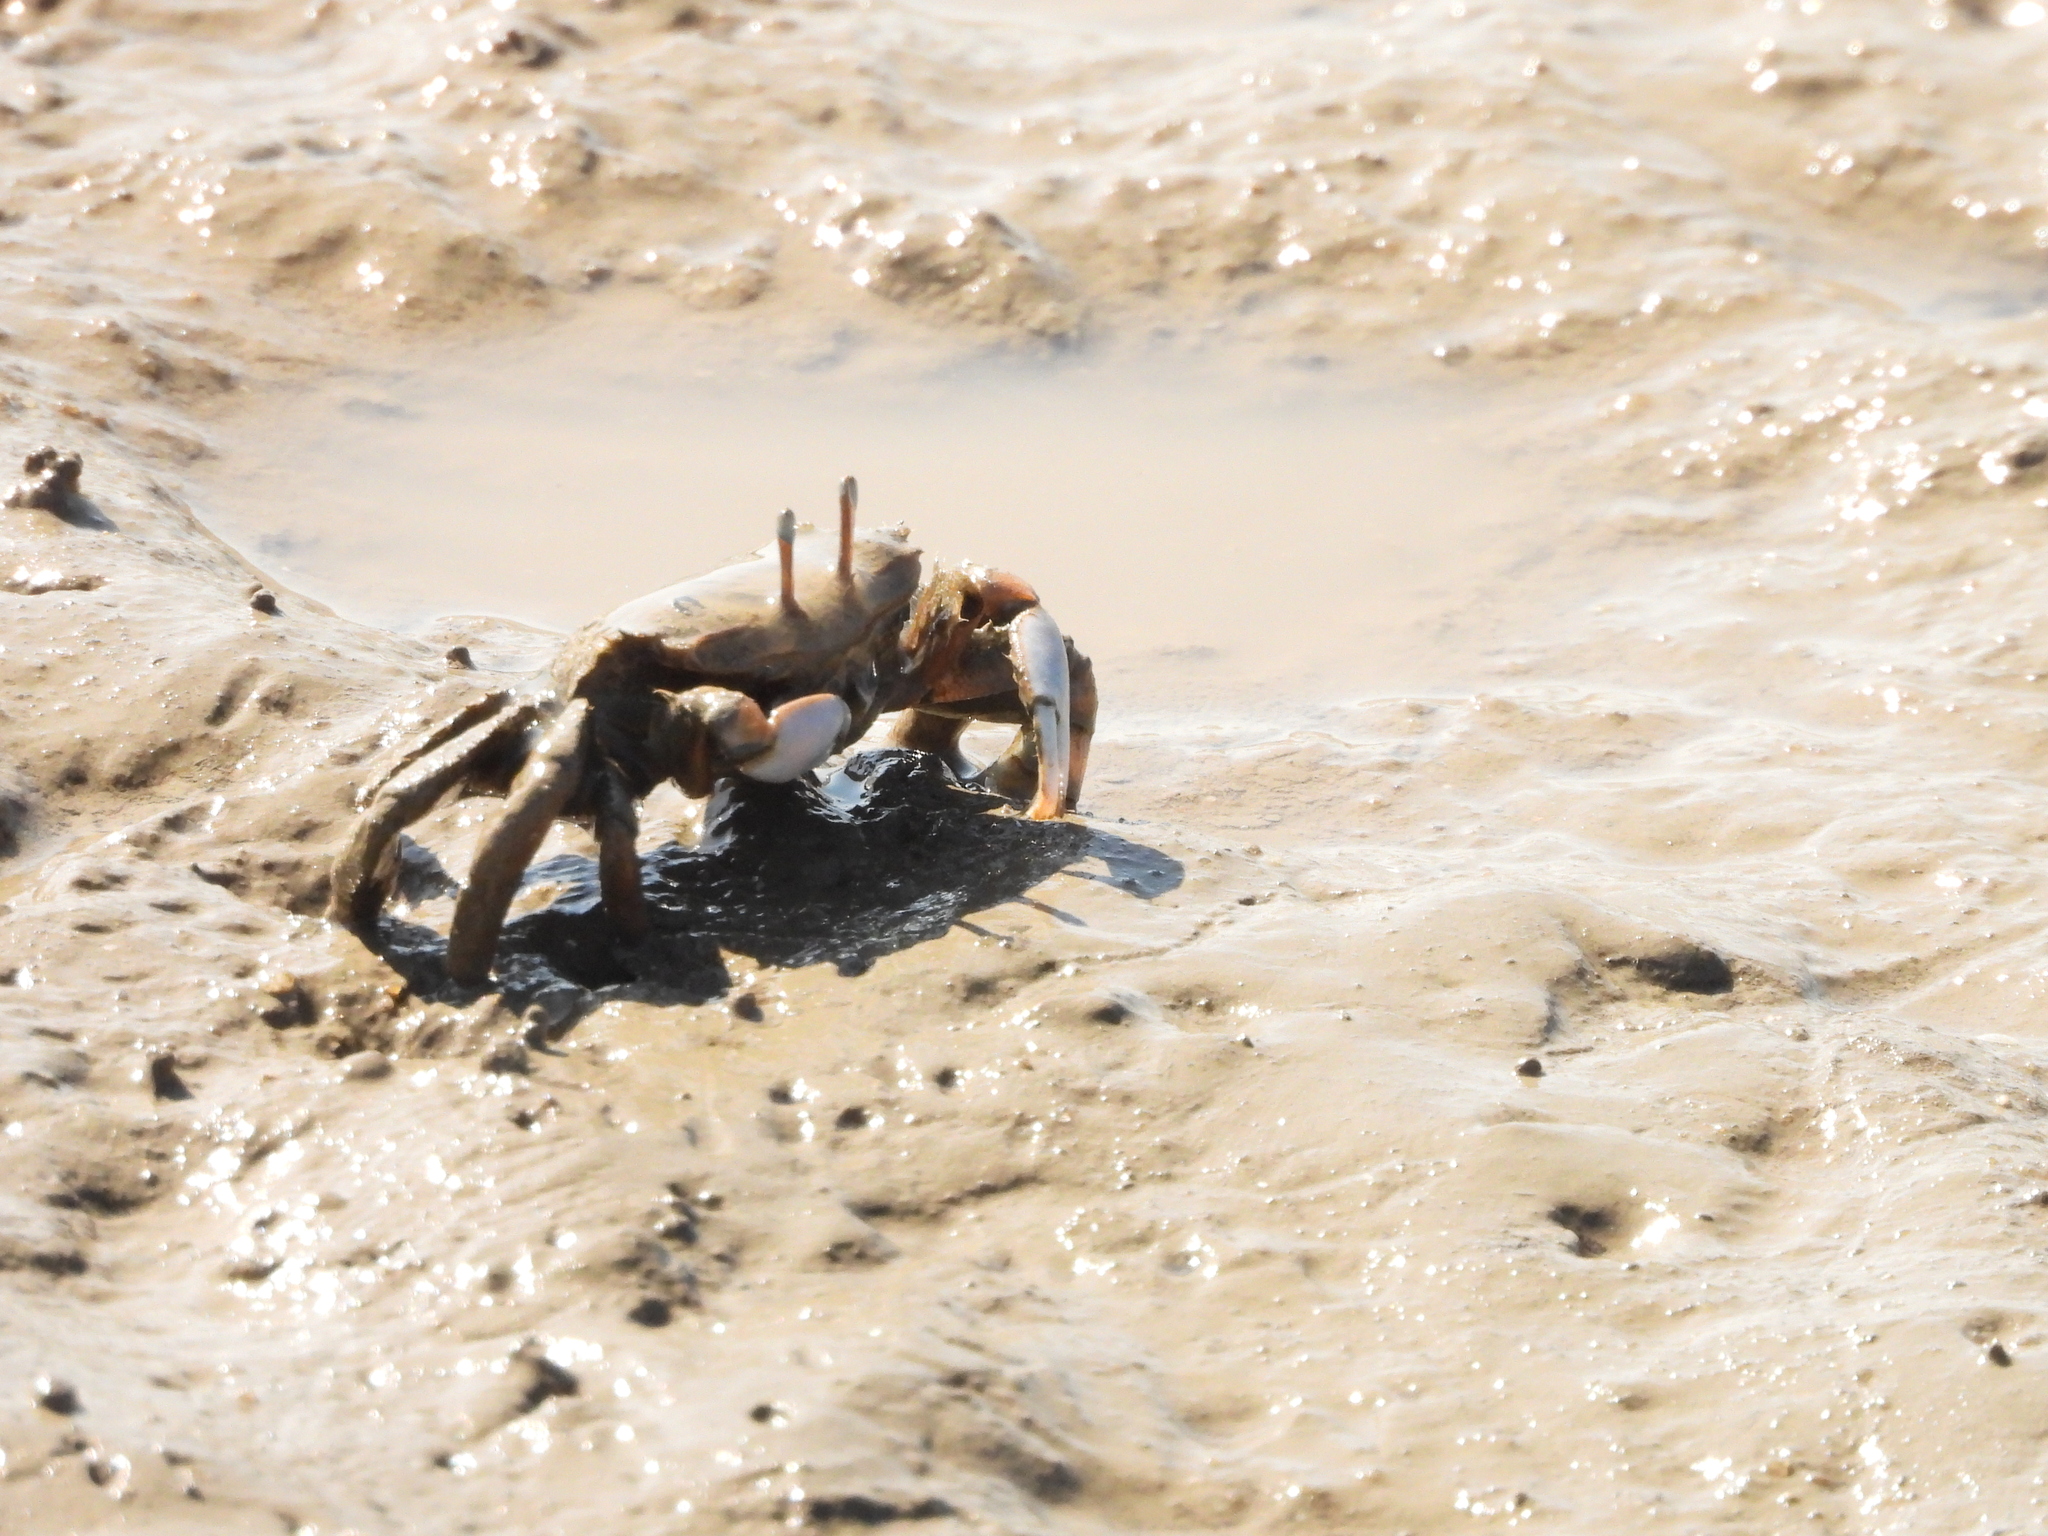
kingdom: Animalia
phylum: Arthropoda
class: Malacostraca
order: Decapoda
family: Macrophthalmidae
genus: Macrophthalmus
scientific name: Macrophthalmus tomentosus
